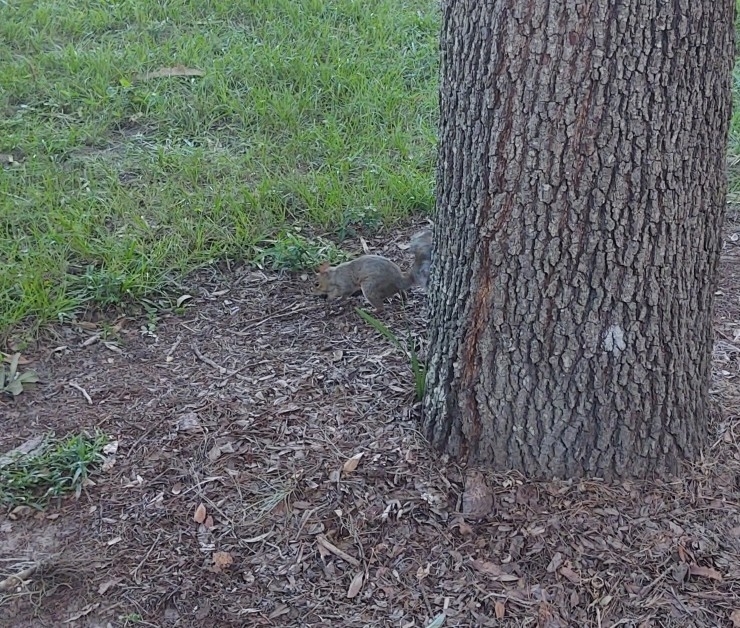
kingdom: Animalia
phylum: Chordata
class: Mammalia
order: Rodentia
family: Sciuridae
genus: Sciurus
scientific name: Sciurus carolinensis
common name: Eastern gray squirrel
